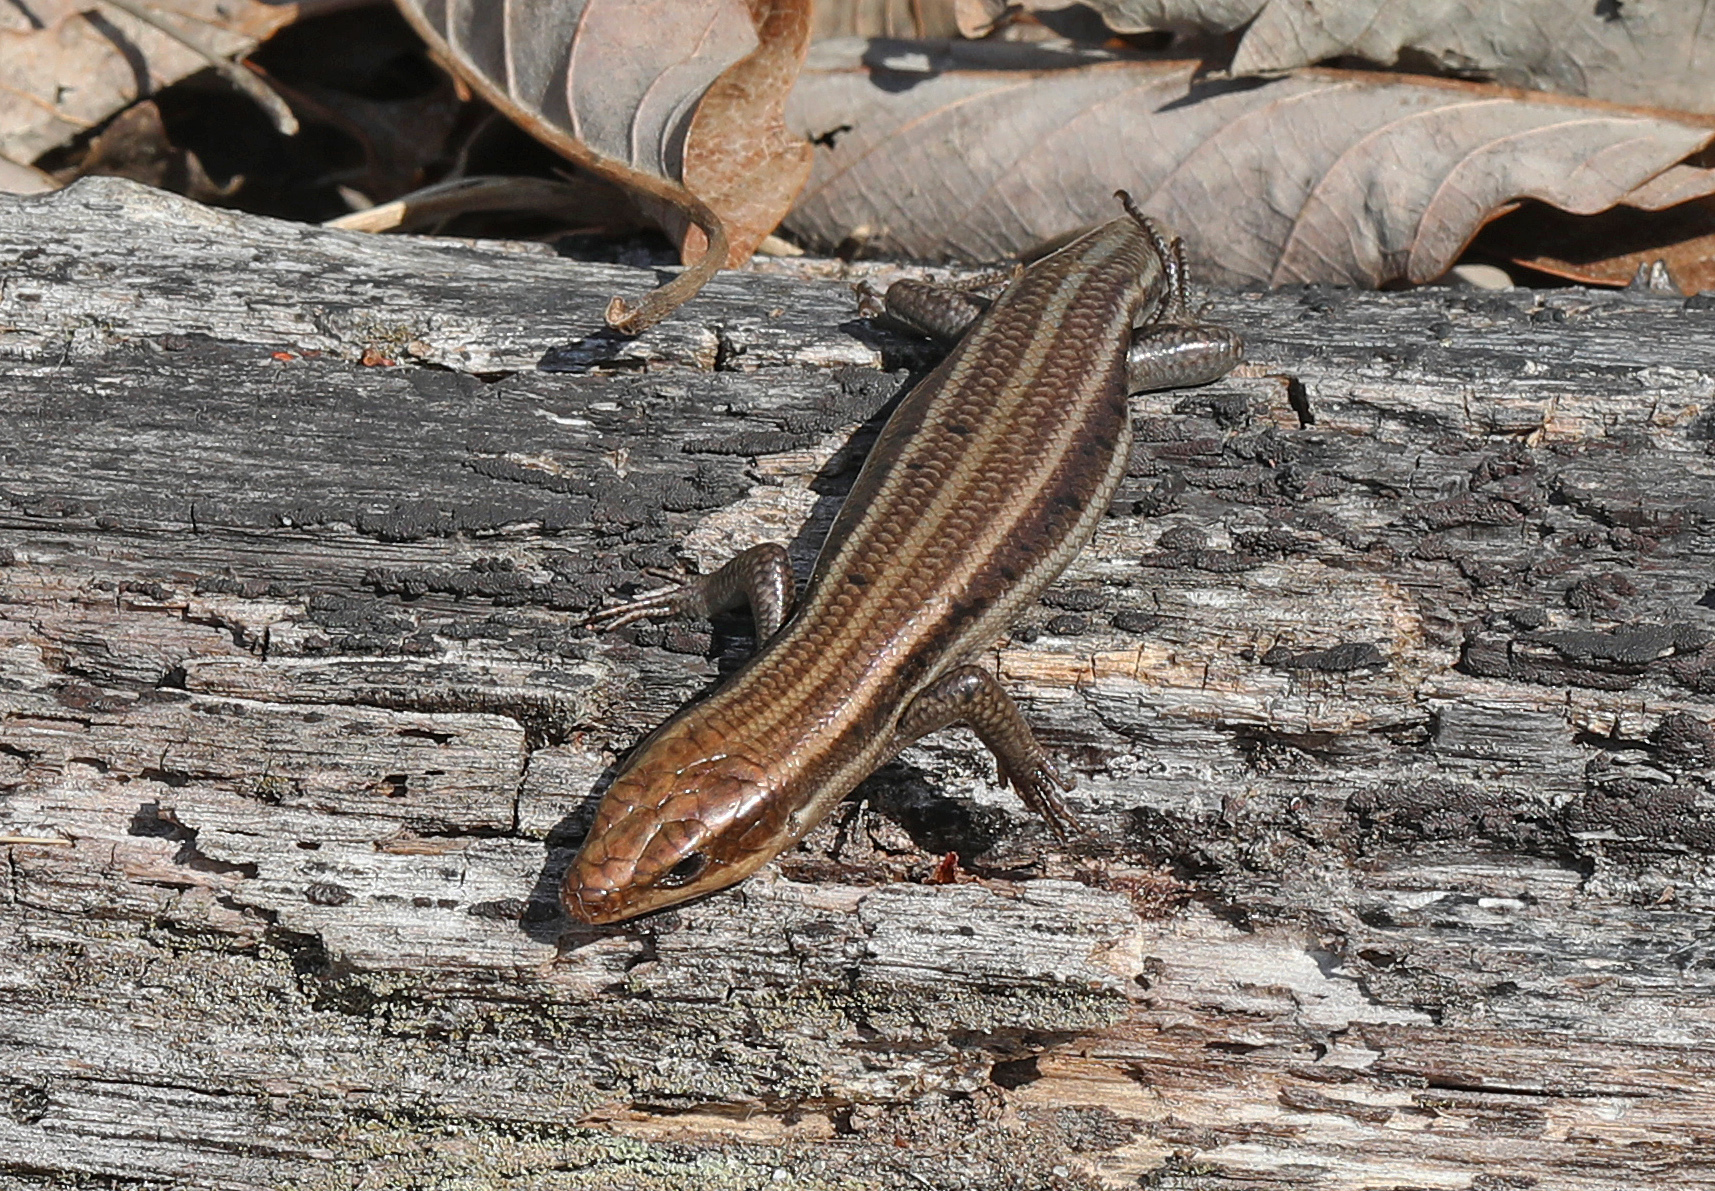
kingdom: Animalia
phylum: Chordata
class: Squamata
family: Scincidae
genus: Plestiodon
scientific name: Plestiodon fasciatus
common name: Five-lined skink
